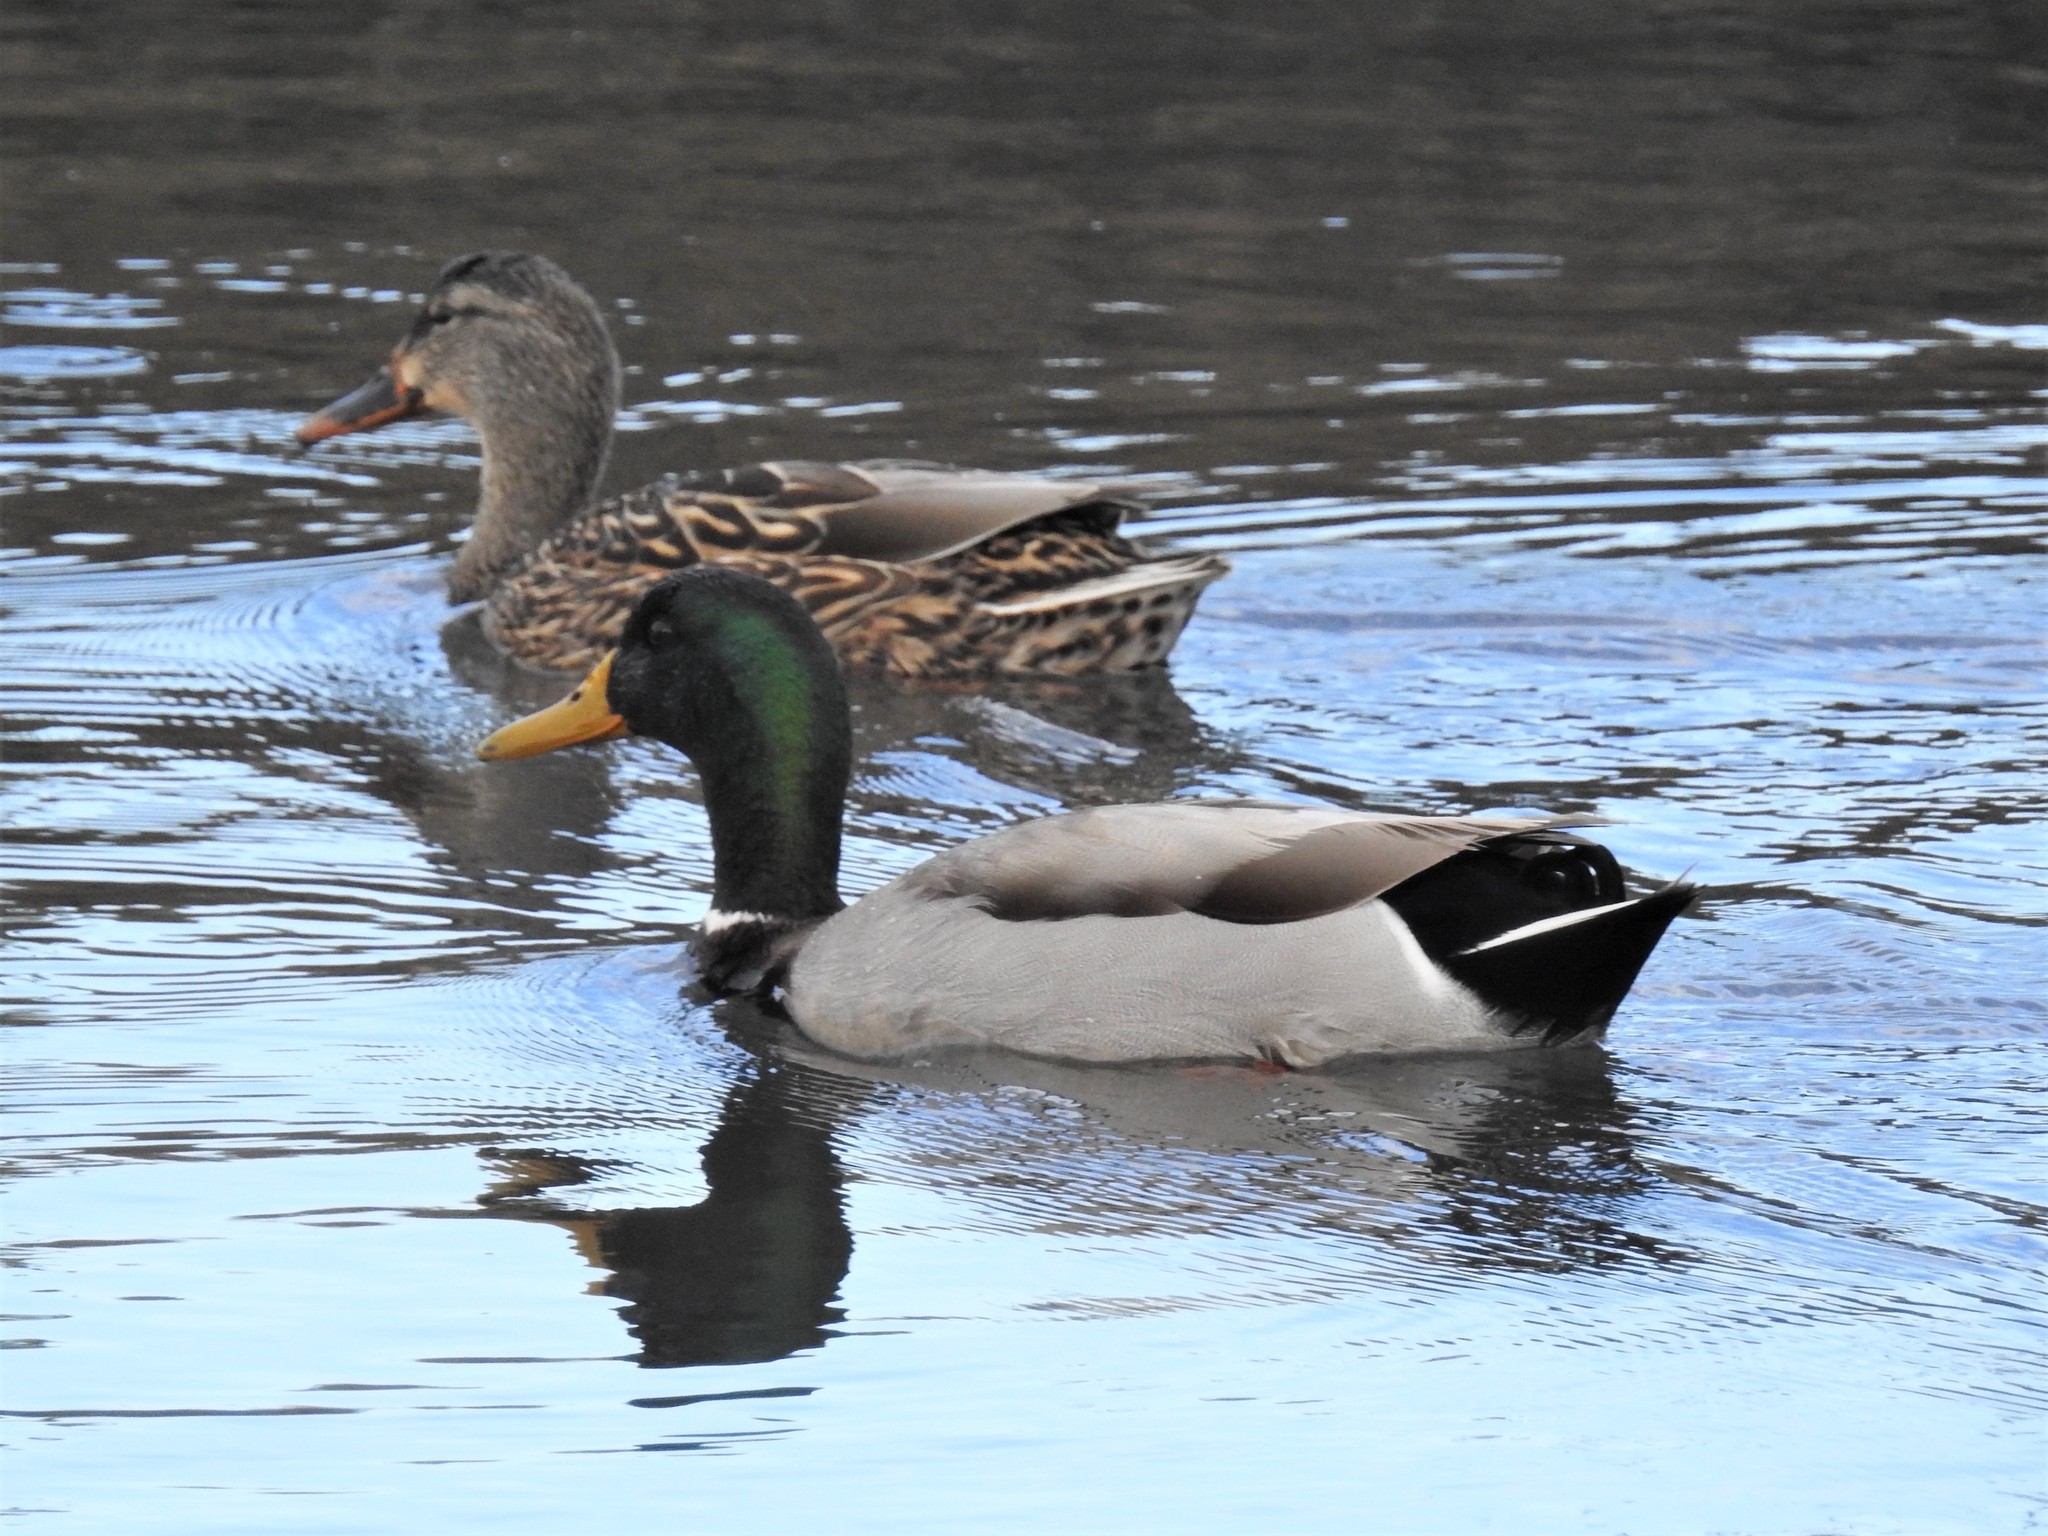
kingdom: Animalia
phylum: Chordata
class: Aves
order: Anseriformes
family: Anatidae
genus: Anas
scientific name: Anas platyrhynchos
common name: Mallard
